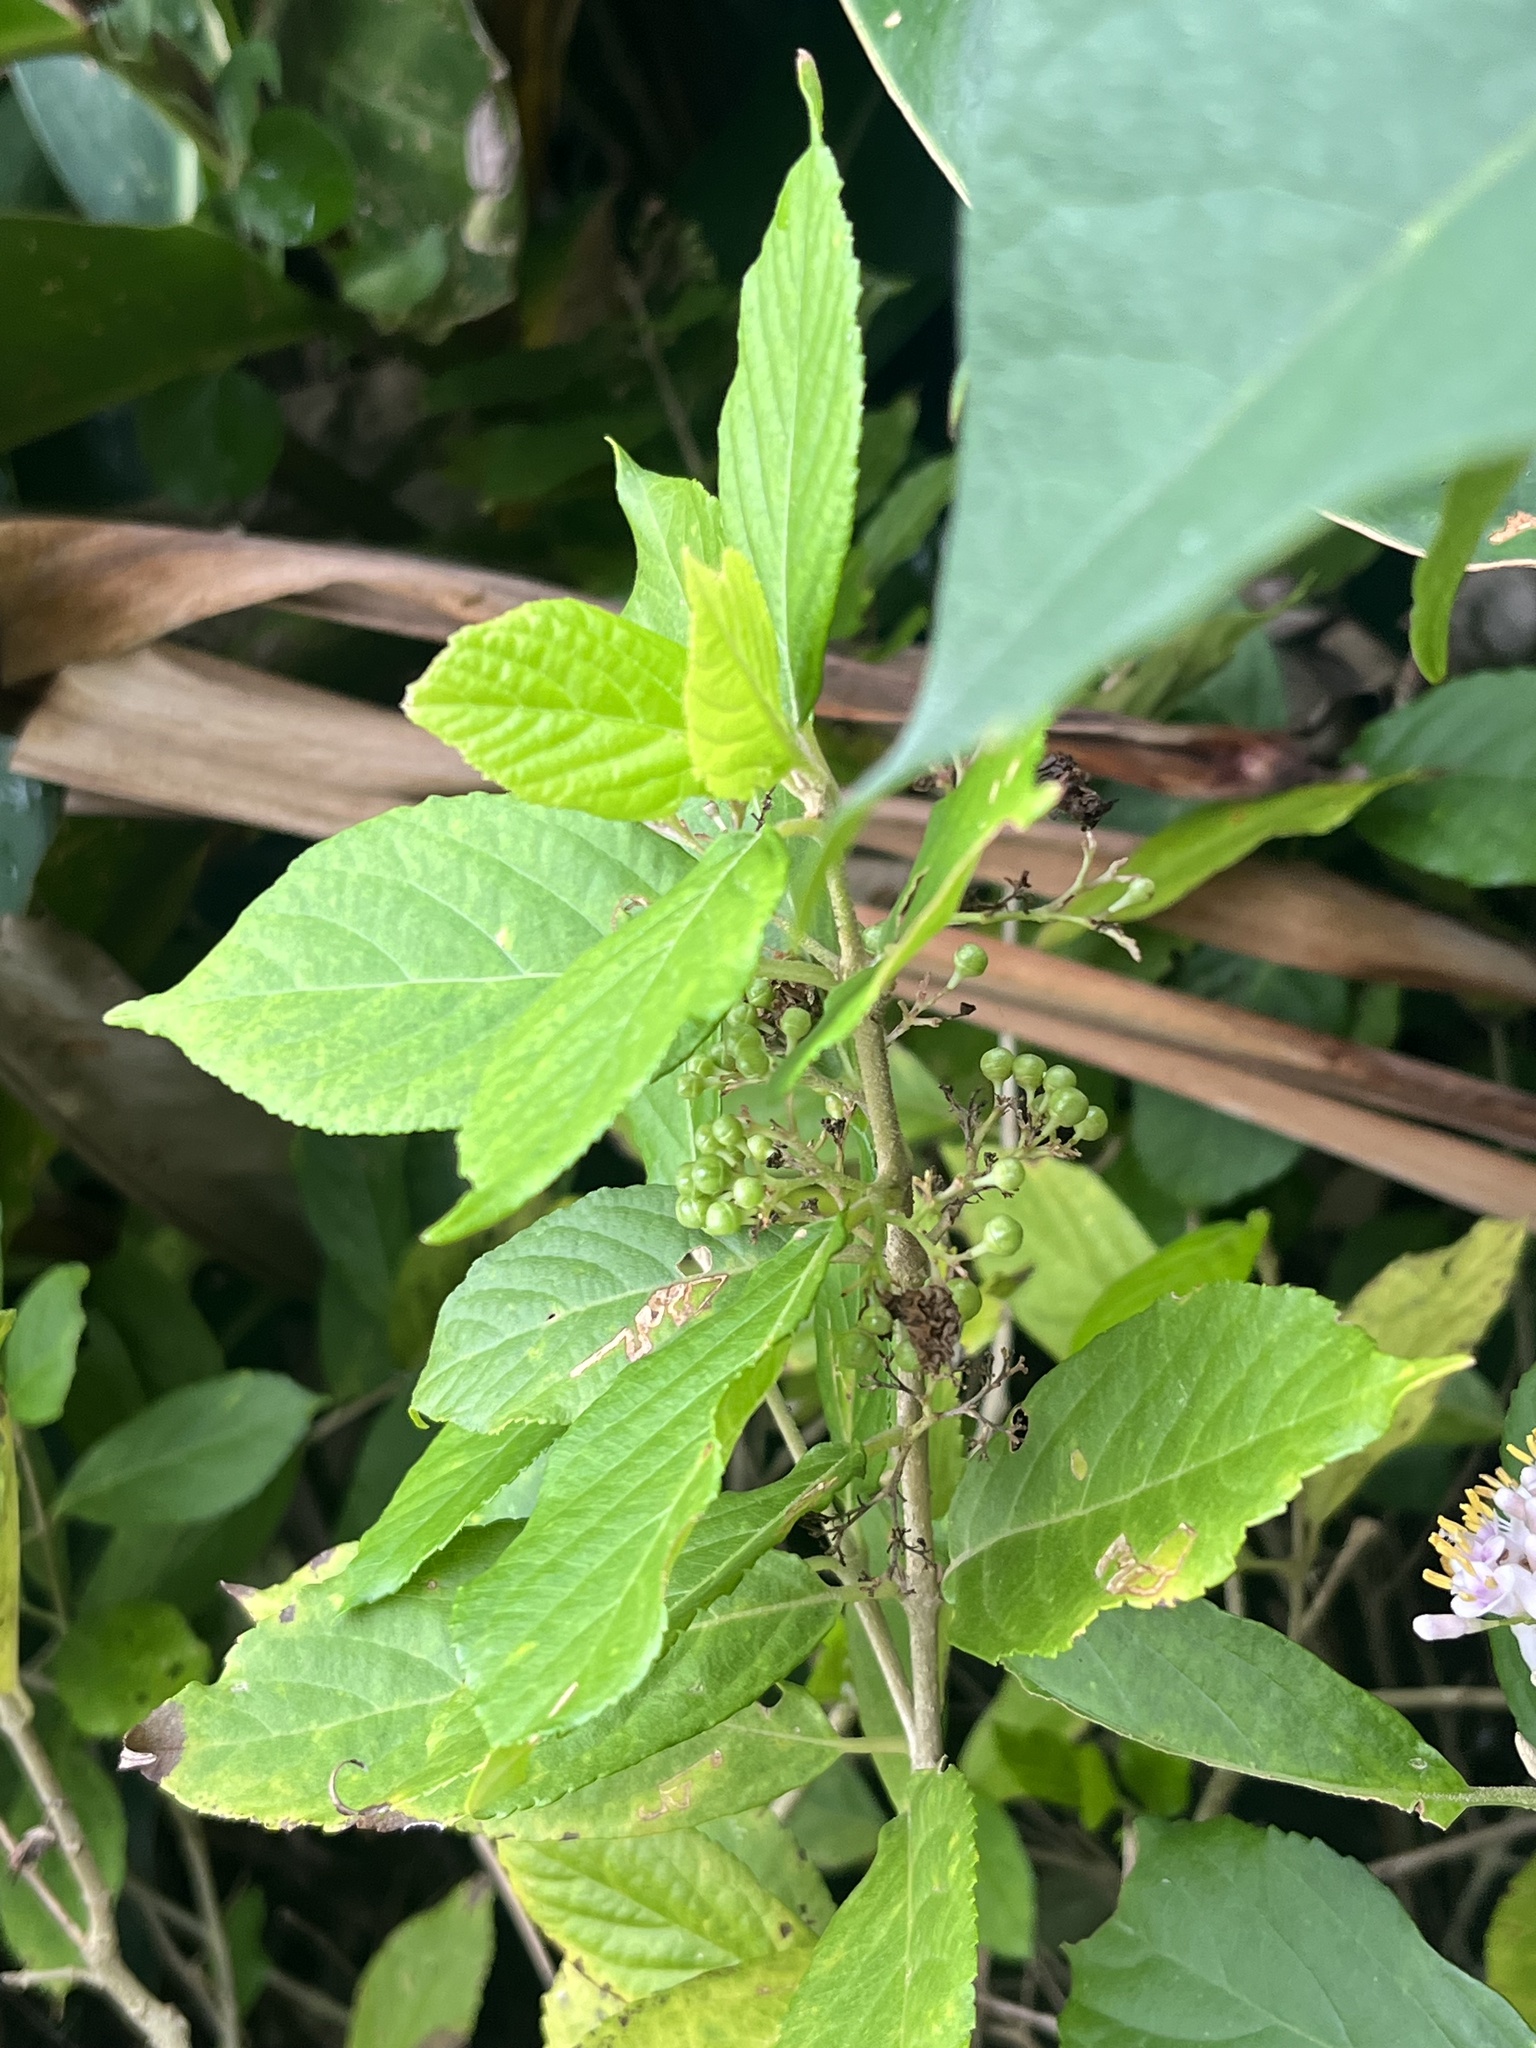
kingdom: Plantae
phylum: Tracheophyta
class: Magnoliopsida
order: Lamiales
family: Lamiaceae
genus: Callicarpa
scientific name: Callicarpa japonica
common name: Japanese beauty-berry
